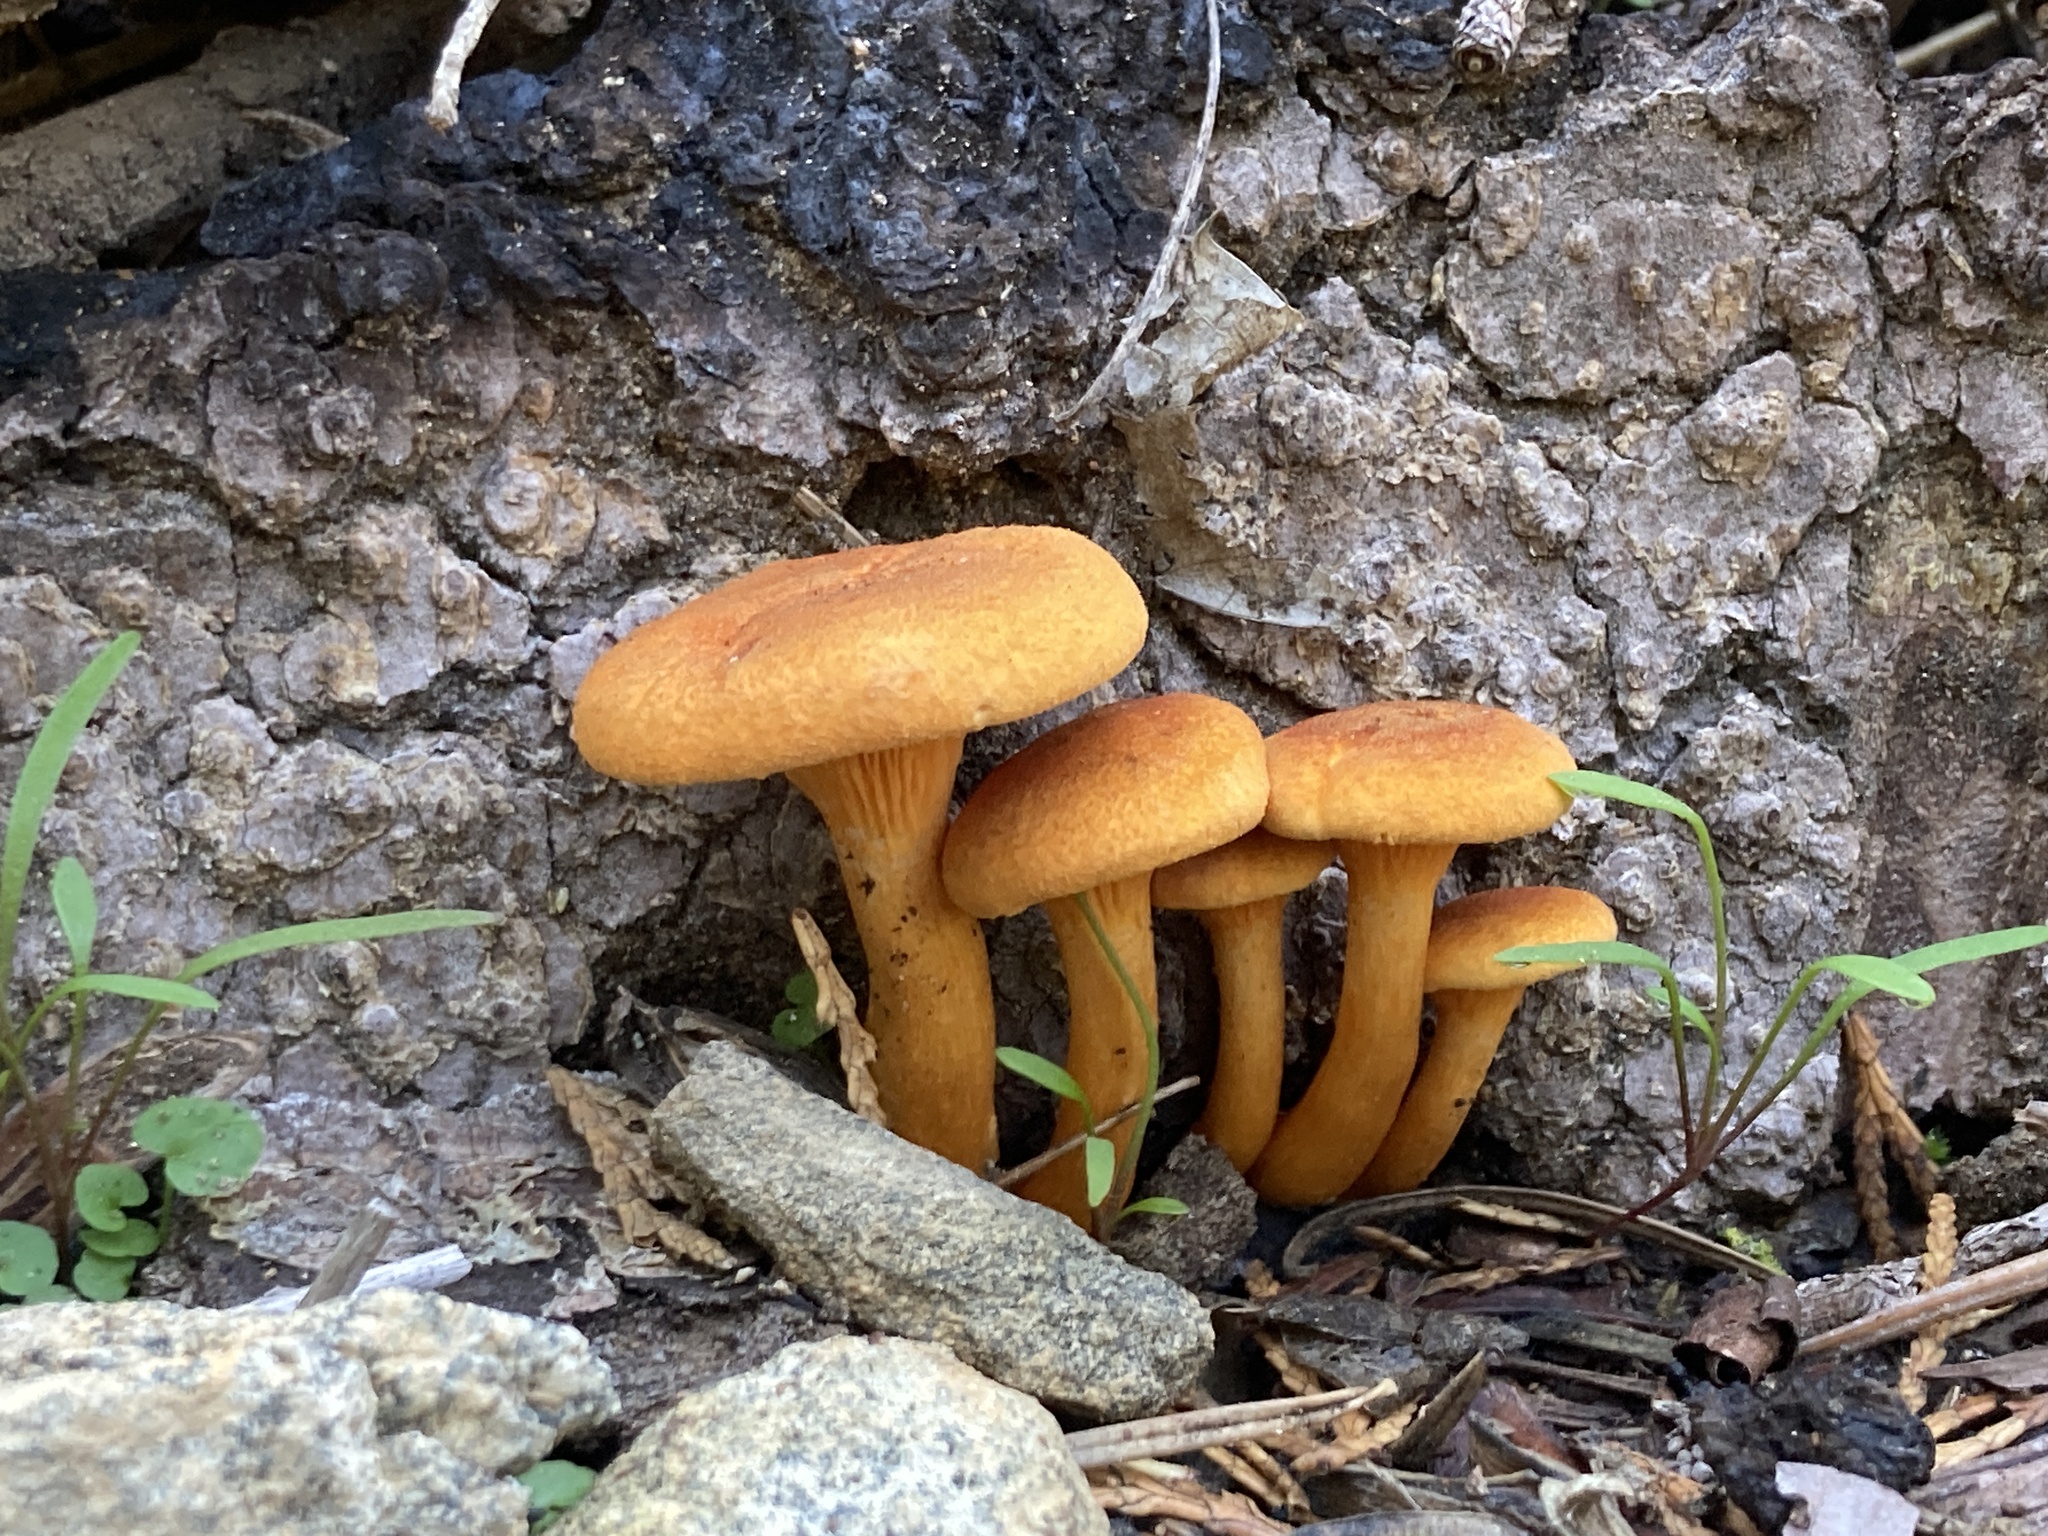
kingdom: Fungi
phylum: Basidiomycota
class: Agaricomycetes
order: Boletales
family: Hygrophoropsidaceae
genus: Hygrophoropsis
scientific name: Hygrophoropsis aurantiaca
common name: False chanterelle
